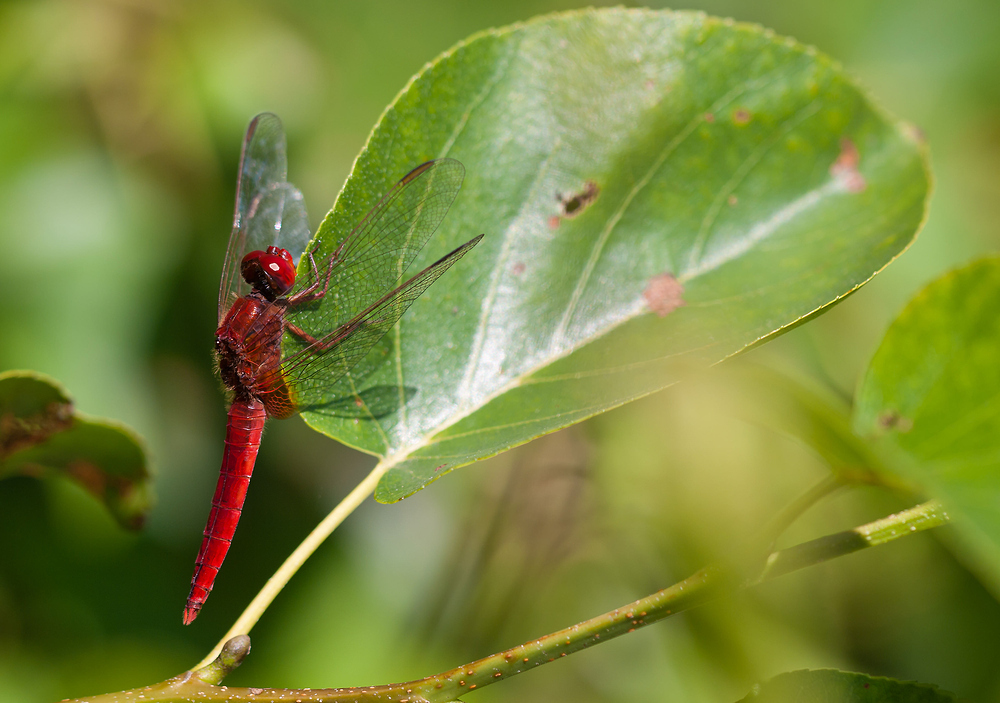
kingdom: Animalia
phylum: Arthropoda
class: Insecta
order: Odonata
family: Libellulidae
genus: Crocothemis
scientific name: Crocothemis erythraea
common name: Scarlet dragonfly
